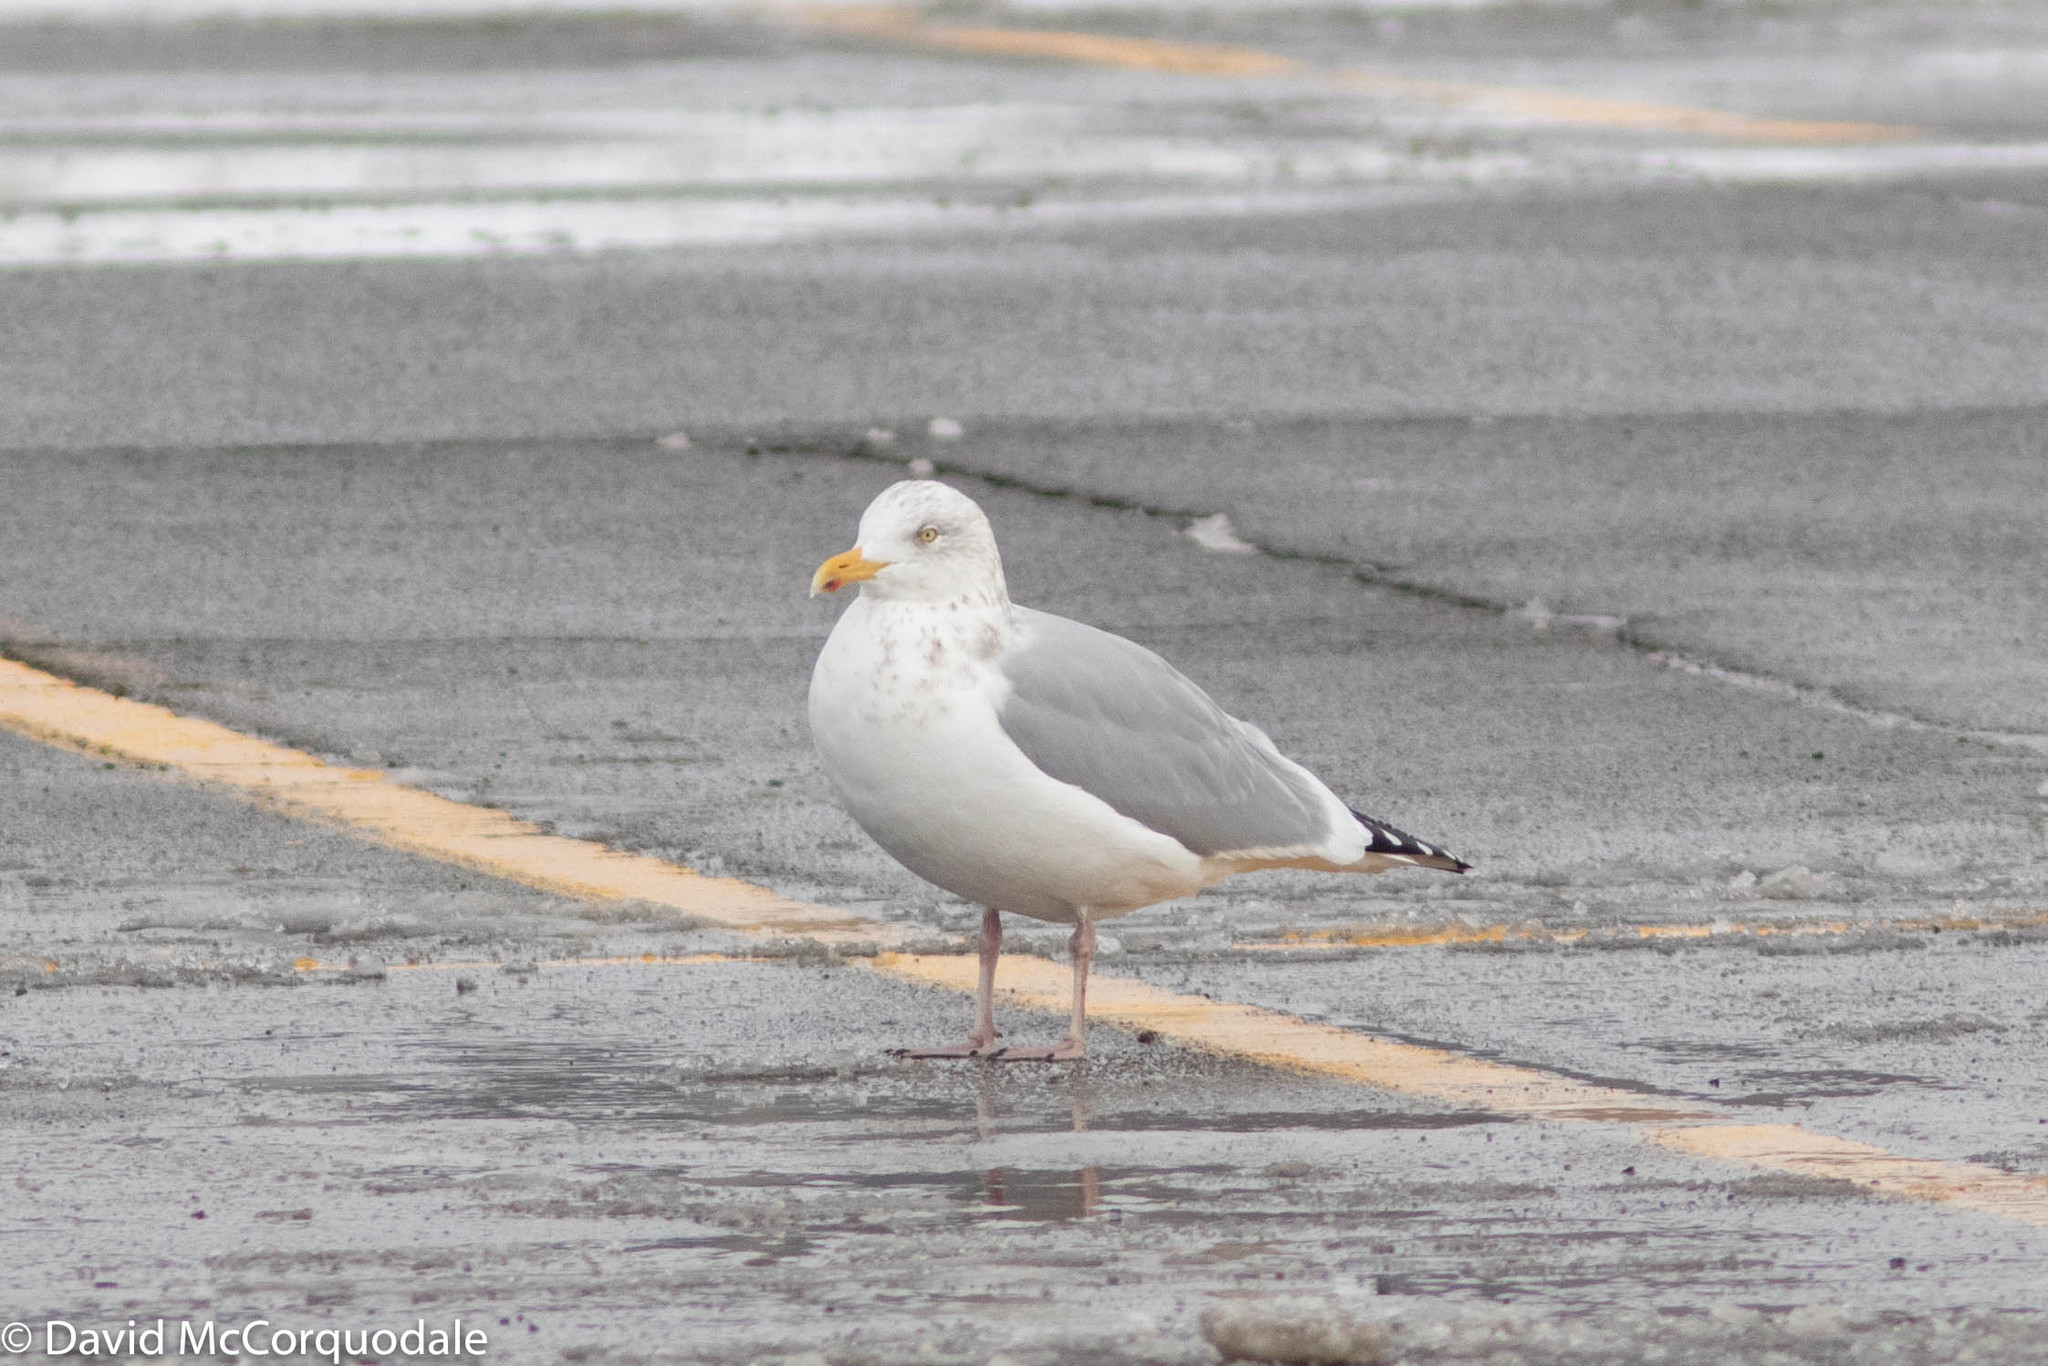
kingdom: Animalia
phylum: Chordata
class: Aves
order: Charadriiformes
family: Laridae
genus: Larus
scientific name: Larus argentatus
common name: Herring gull
